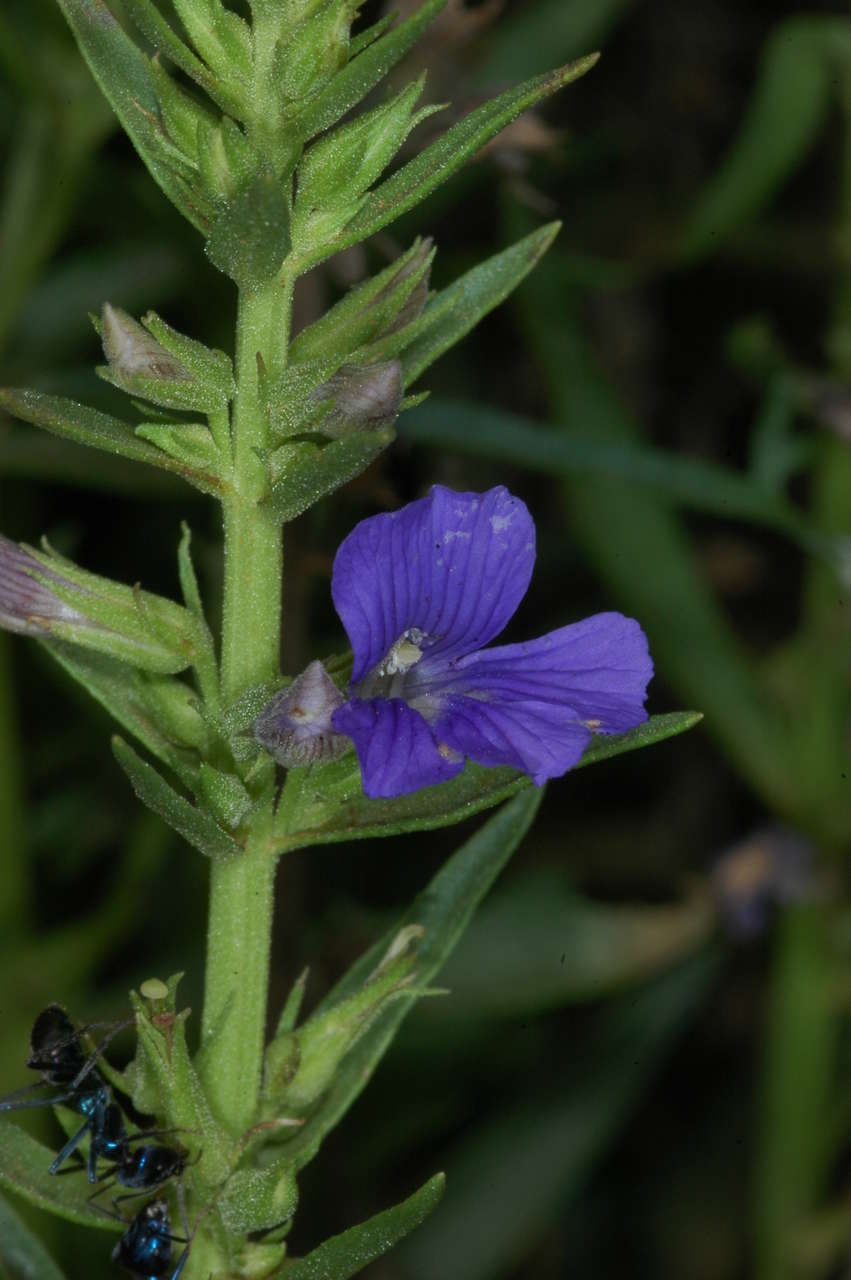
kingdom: Plantae
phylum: Tracheophyta
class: Magnoliopsida
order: Lamiales
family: Plantaginaceae
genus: Stemodia
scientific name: Stemodia florulenta
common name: Bluerod
